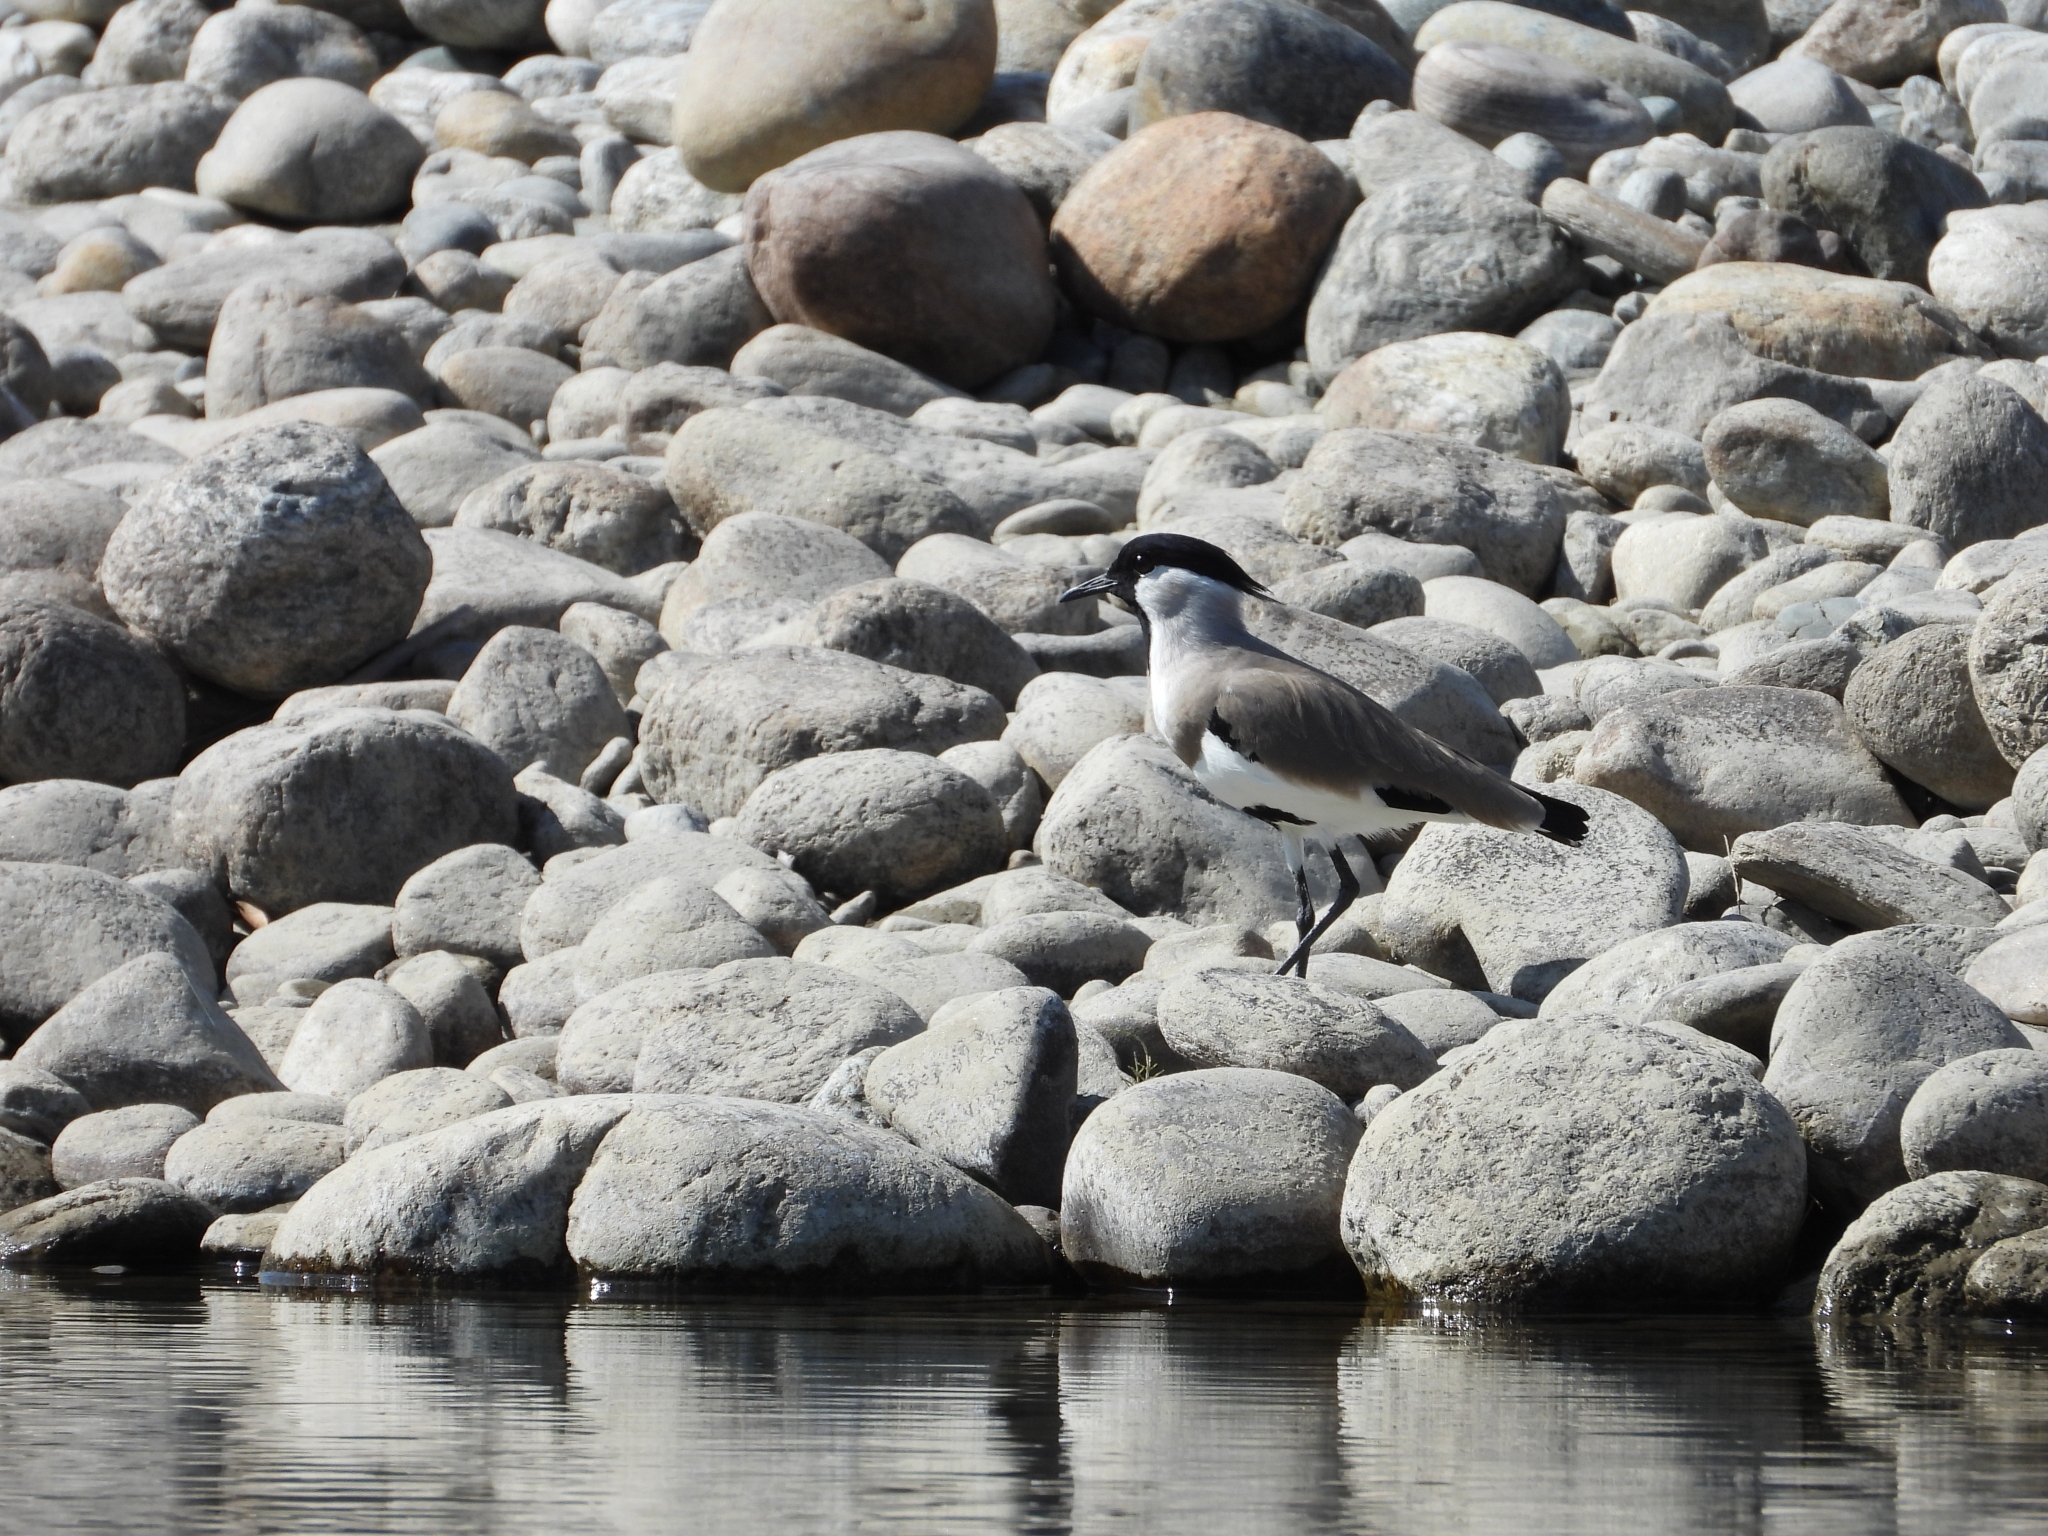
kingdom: Animalia
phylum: Chordata
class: Aves
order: Charadriiformes
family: Charadriidae
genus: Vanellus
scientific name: Vanellus duvaucelii
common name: River lapwing
